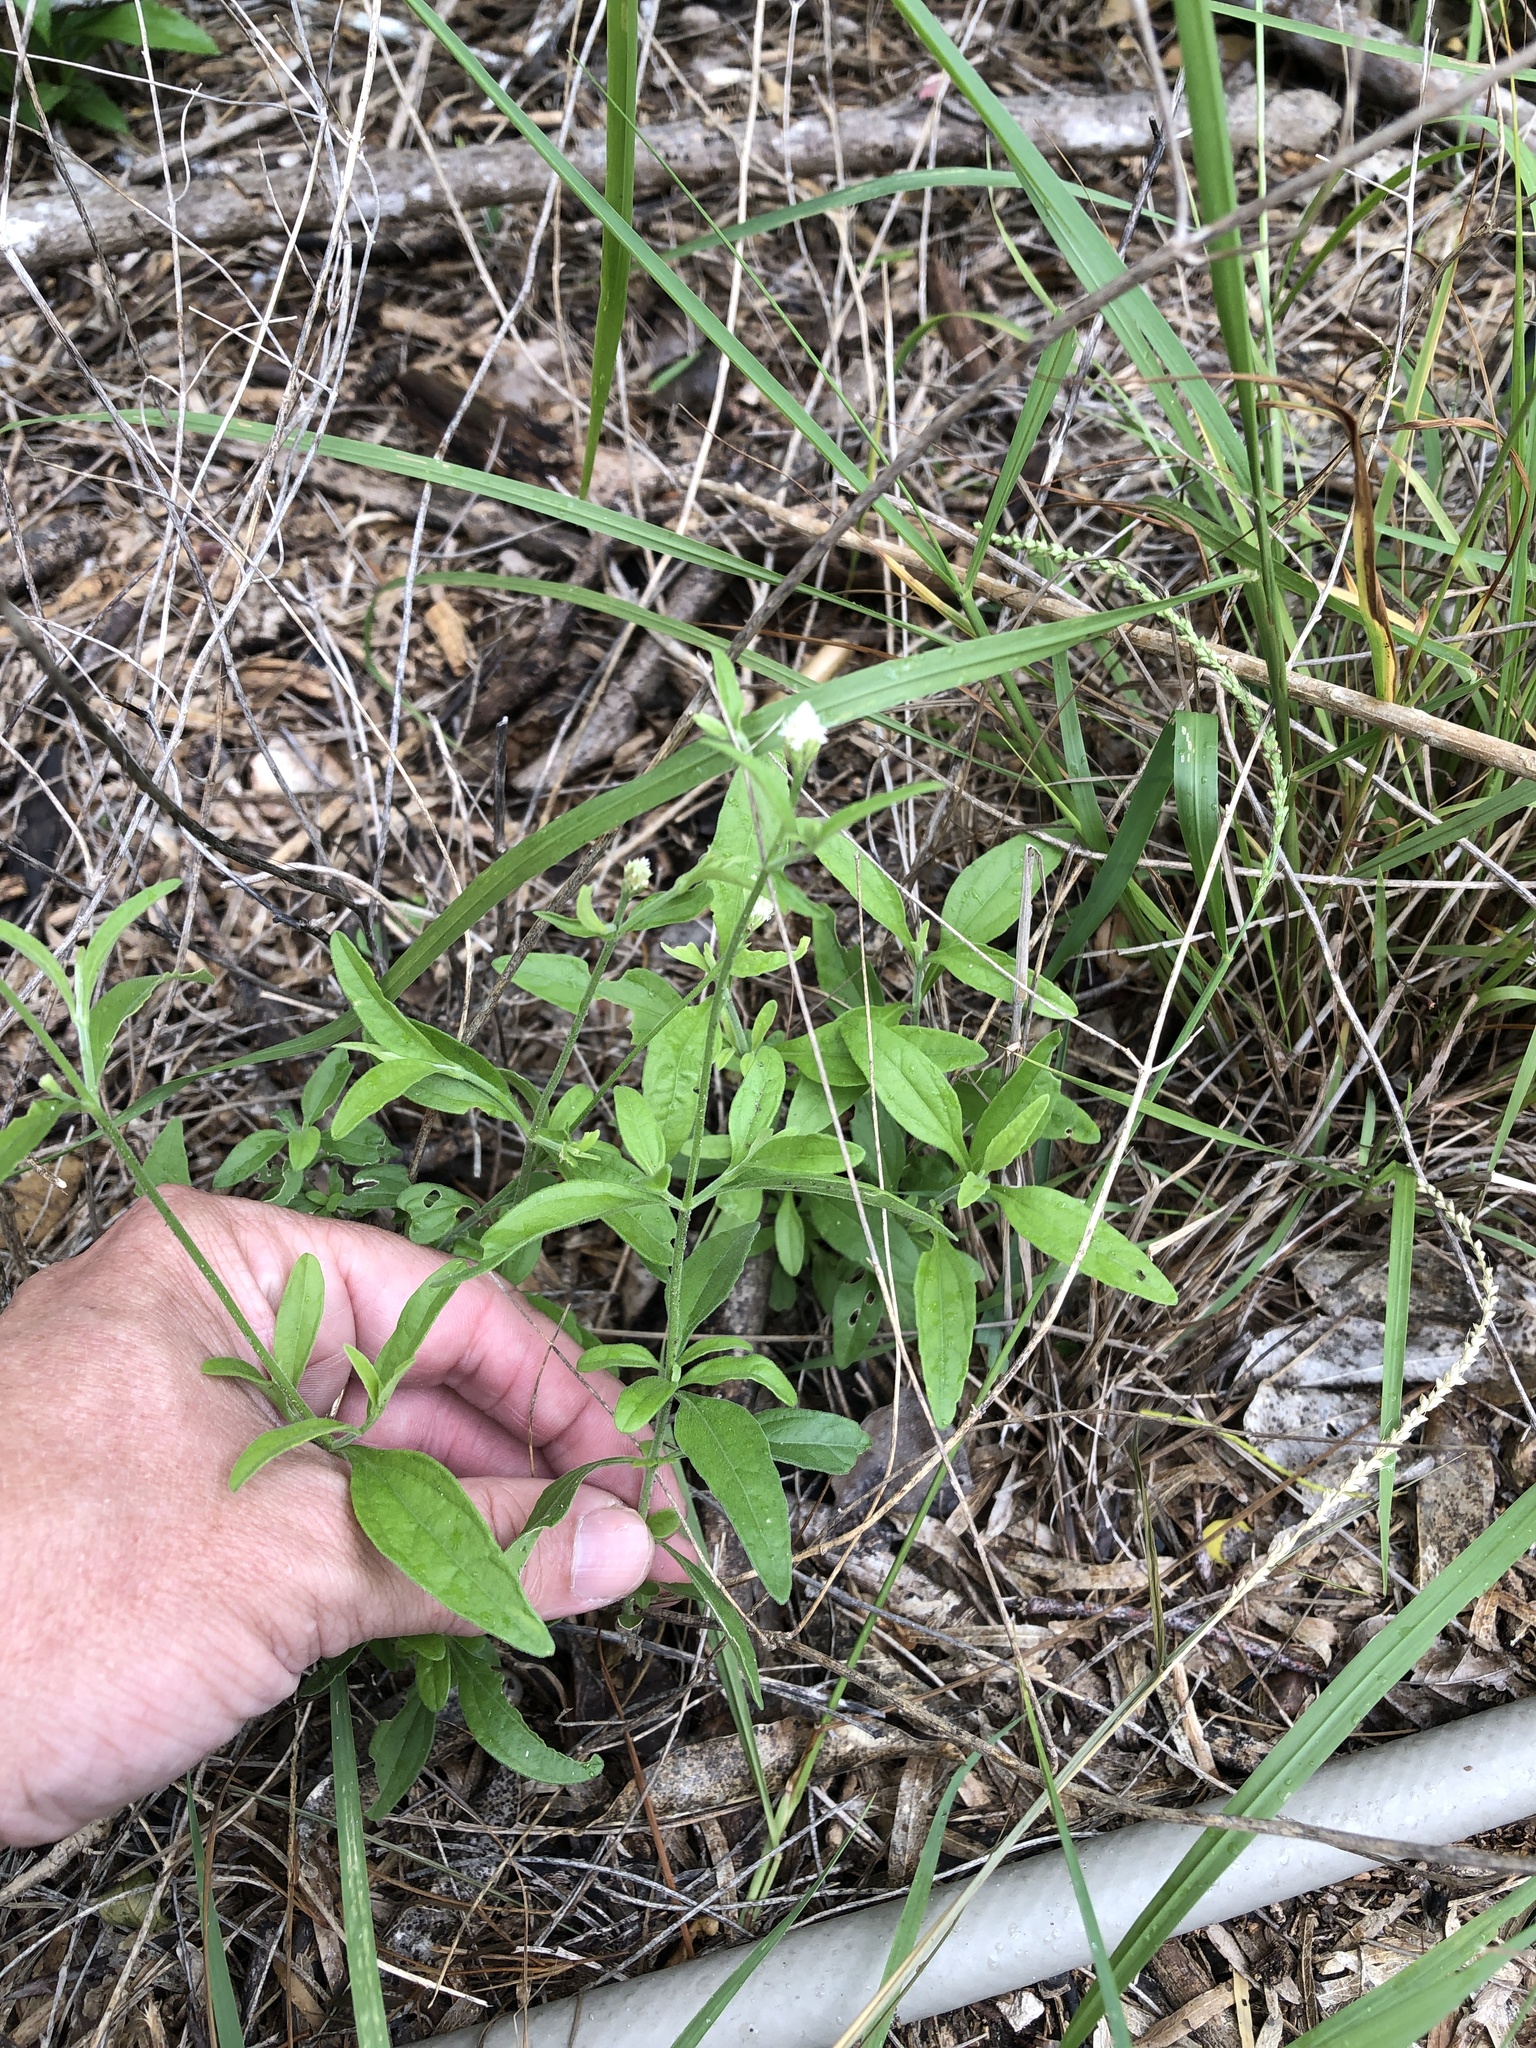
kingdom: Plantae
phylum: Tracheophyta
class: Magnoliopsida
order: Asterales
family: Asteraceae
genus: Isocarpha
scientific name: Isocarpha oppositifolia
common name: Rio grande pearlhead
